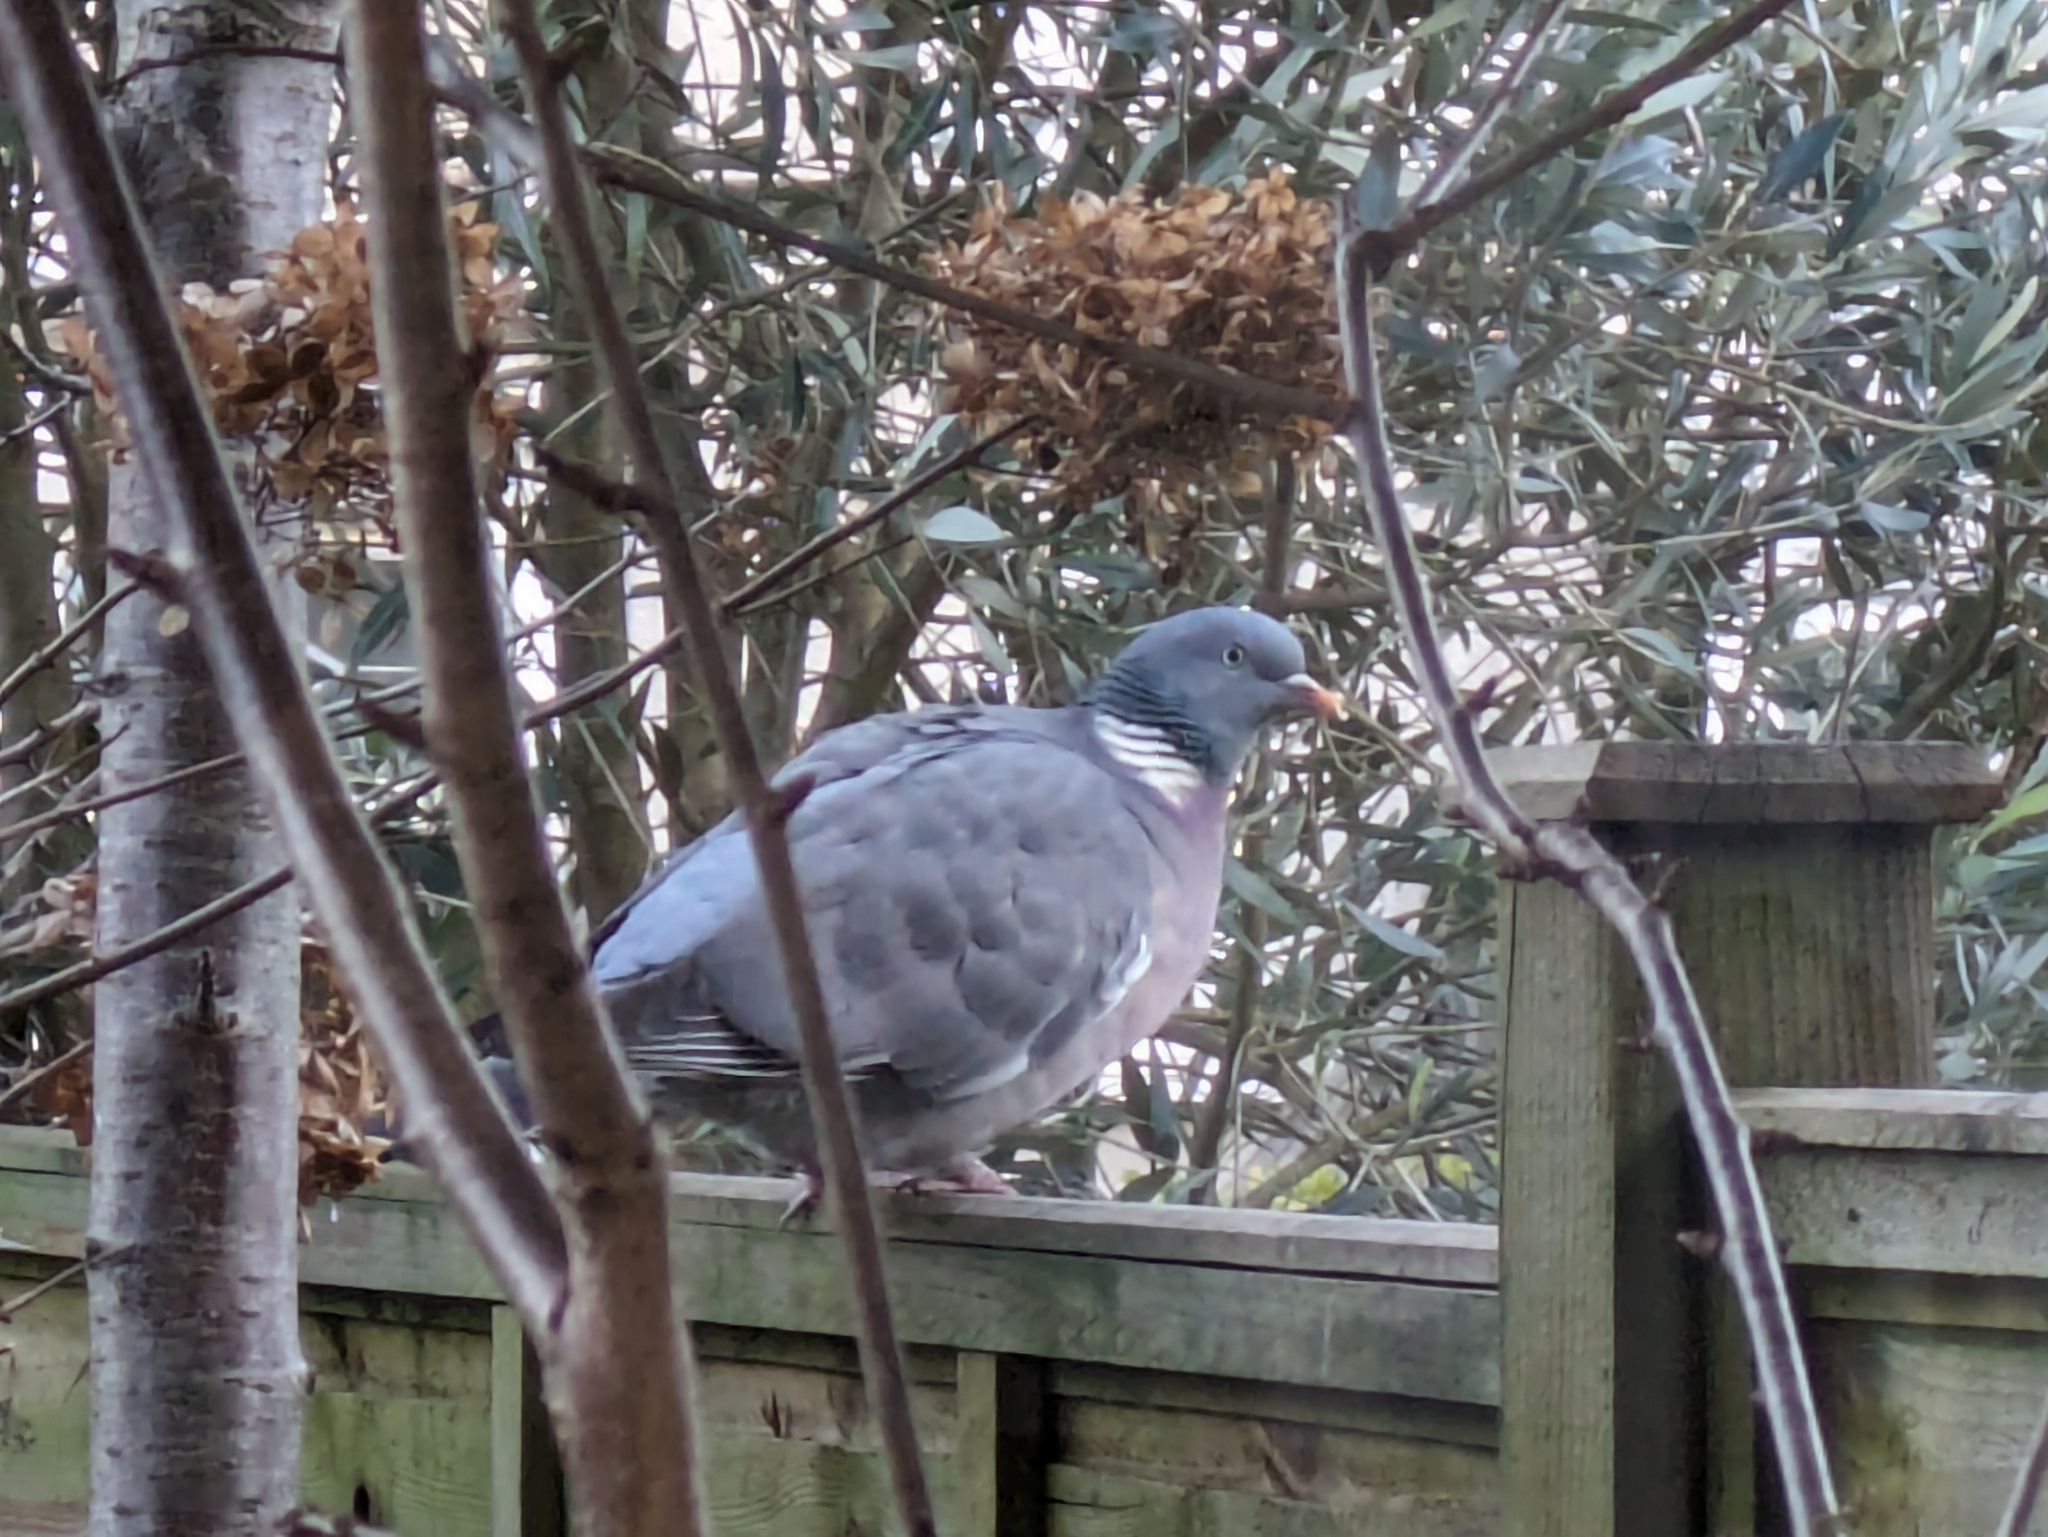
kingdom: Animalia
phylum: Chordata
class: Aves
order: Columbiformes
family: Columbidae
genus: Columba
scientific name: Columba palumbus
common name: Common wood pigeon
